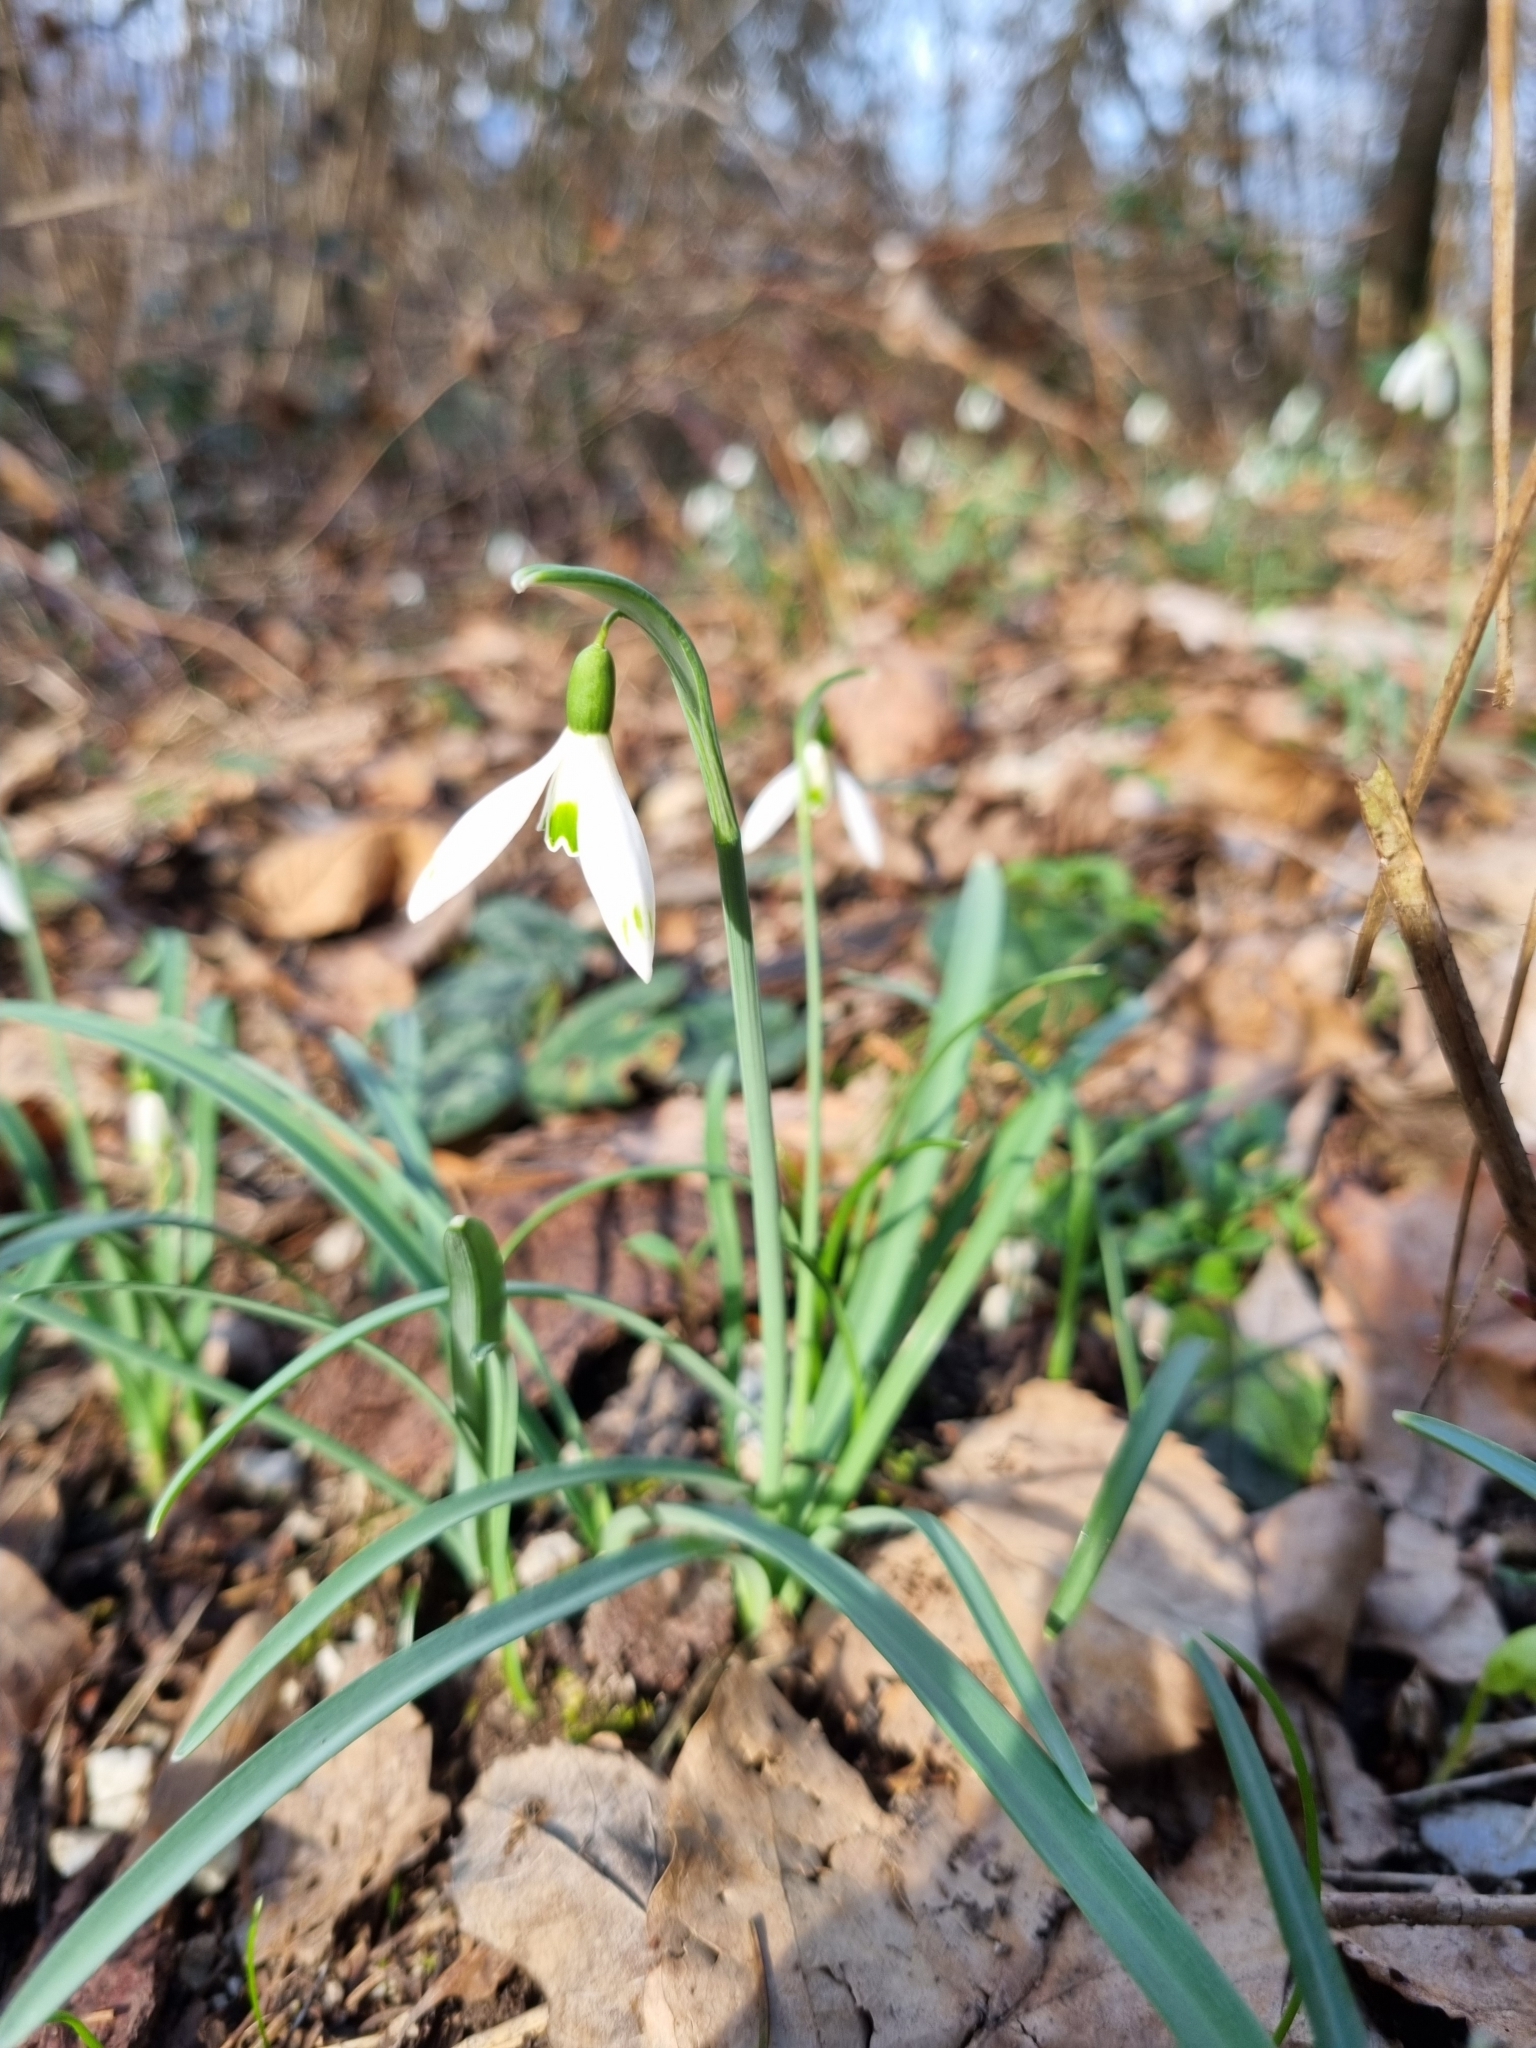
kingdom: Plantae
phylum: Tracheophyta
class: Liliopsida
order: Asparagales
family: Amaryllidaceae
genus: Galanthus
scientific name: Galanthus nivalis
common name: Snowdrop
